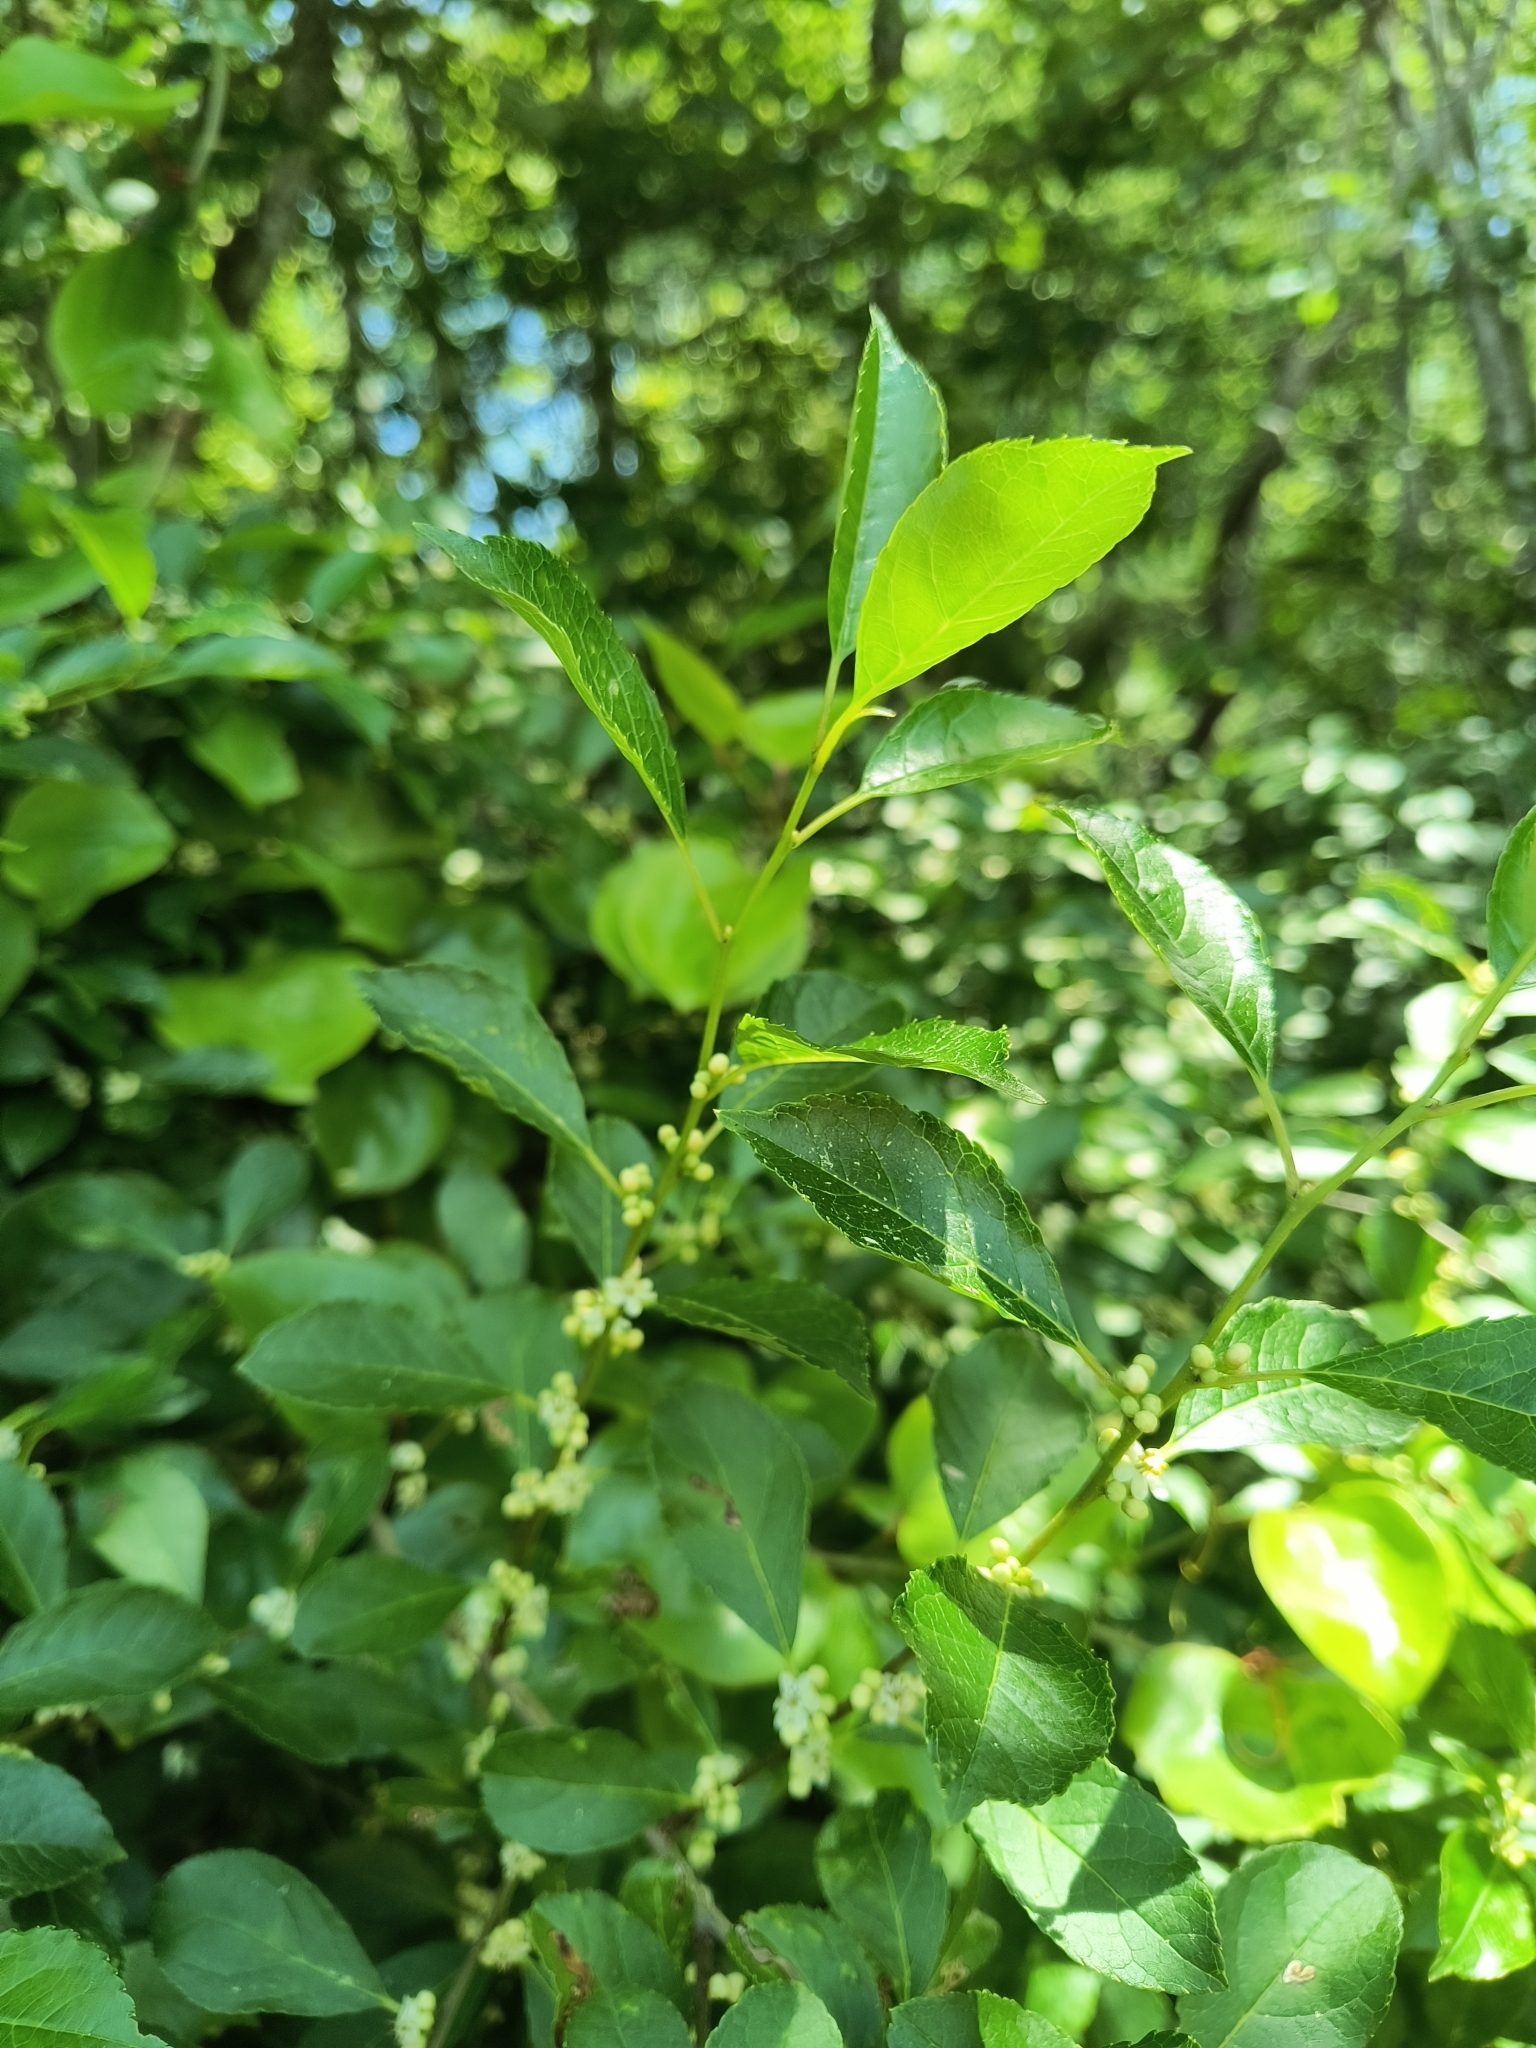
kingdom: Plantae
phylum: Tracheophyta
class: Magnoliopsida
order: Aquifoliales
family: Aquifoliaceae
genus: Ilex
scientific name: Ilex verticillata
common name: Virginia winterberry
